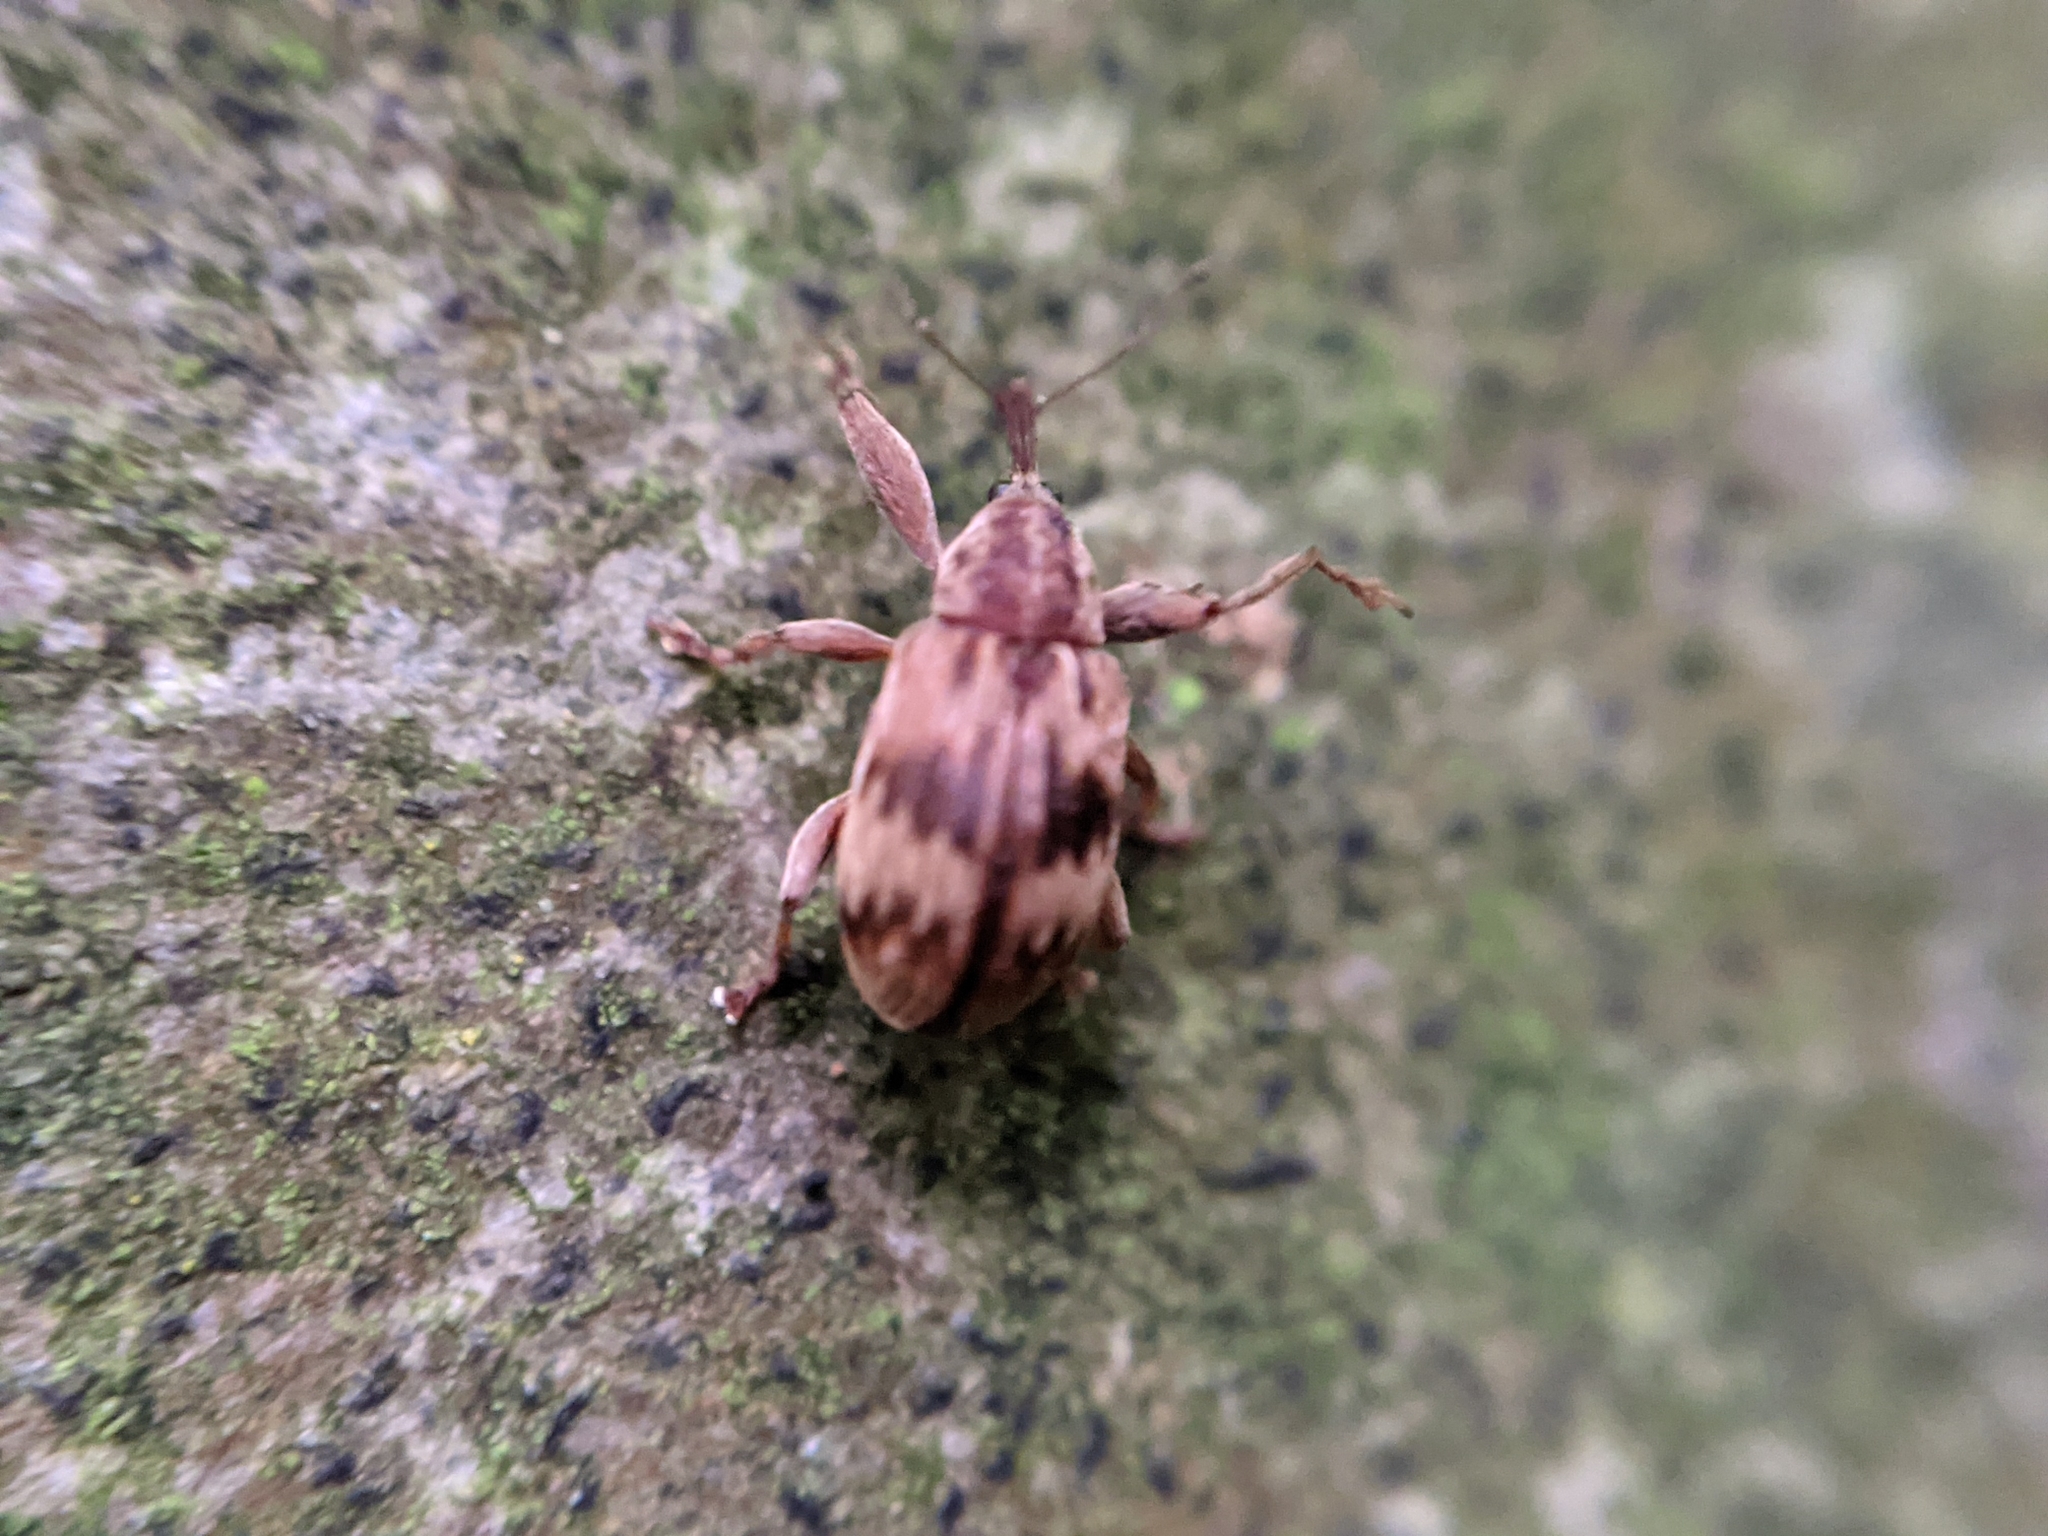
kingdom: Animalia
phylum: Arthropoda
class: Insecta
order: Coleoptera
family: Curculionidae
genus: Anthonomus
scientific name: Anthonomus rectirostris
